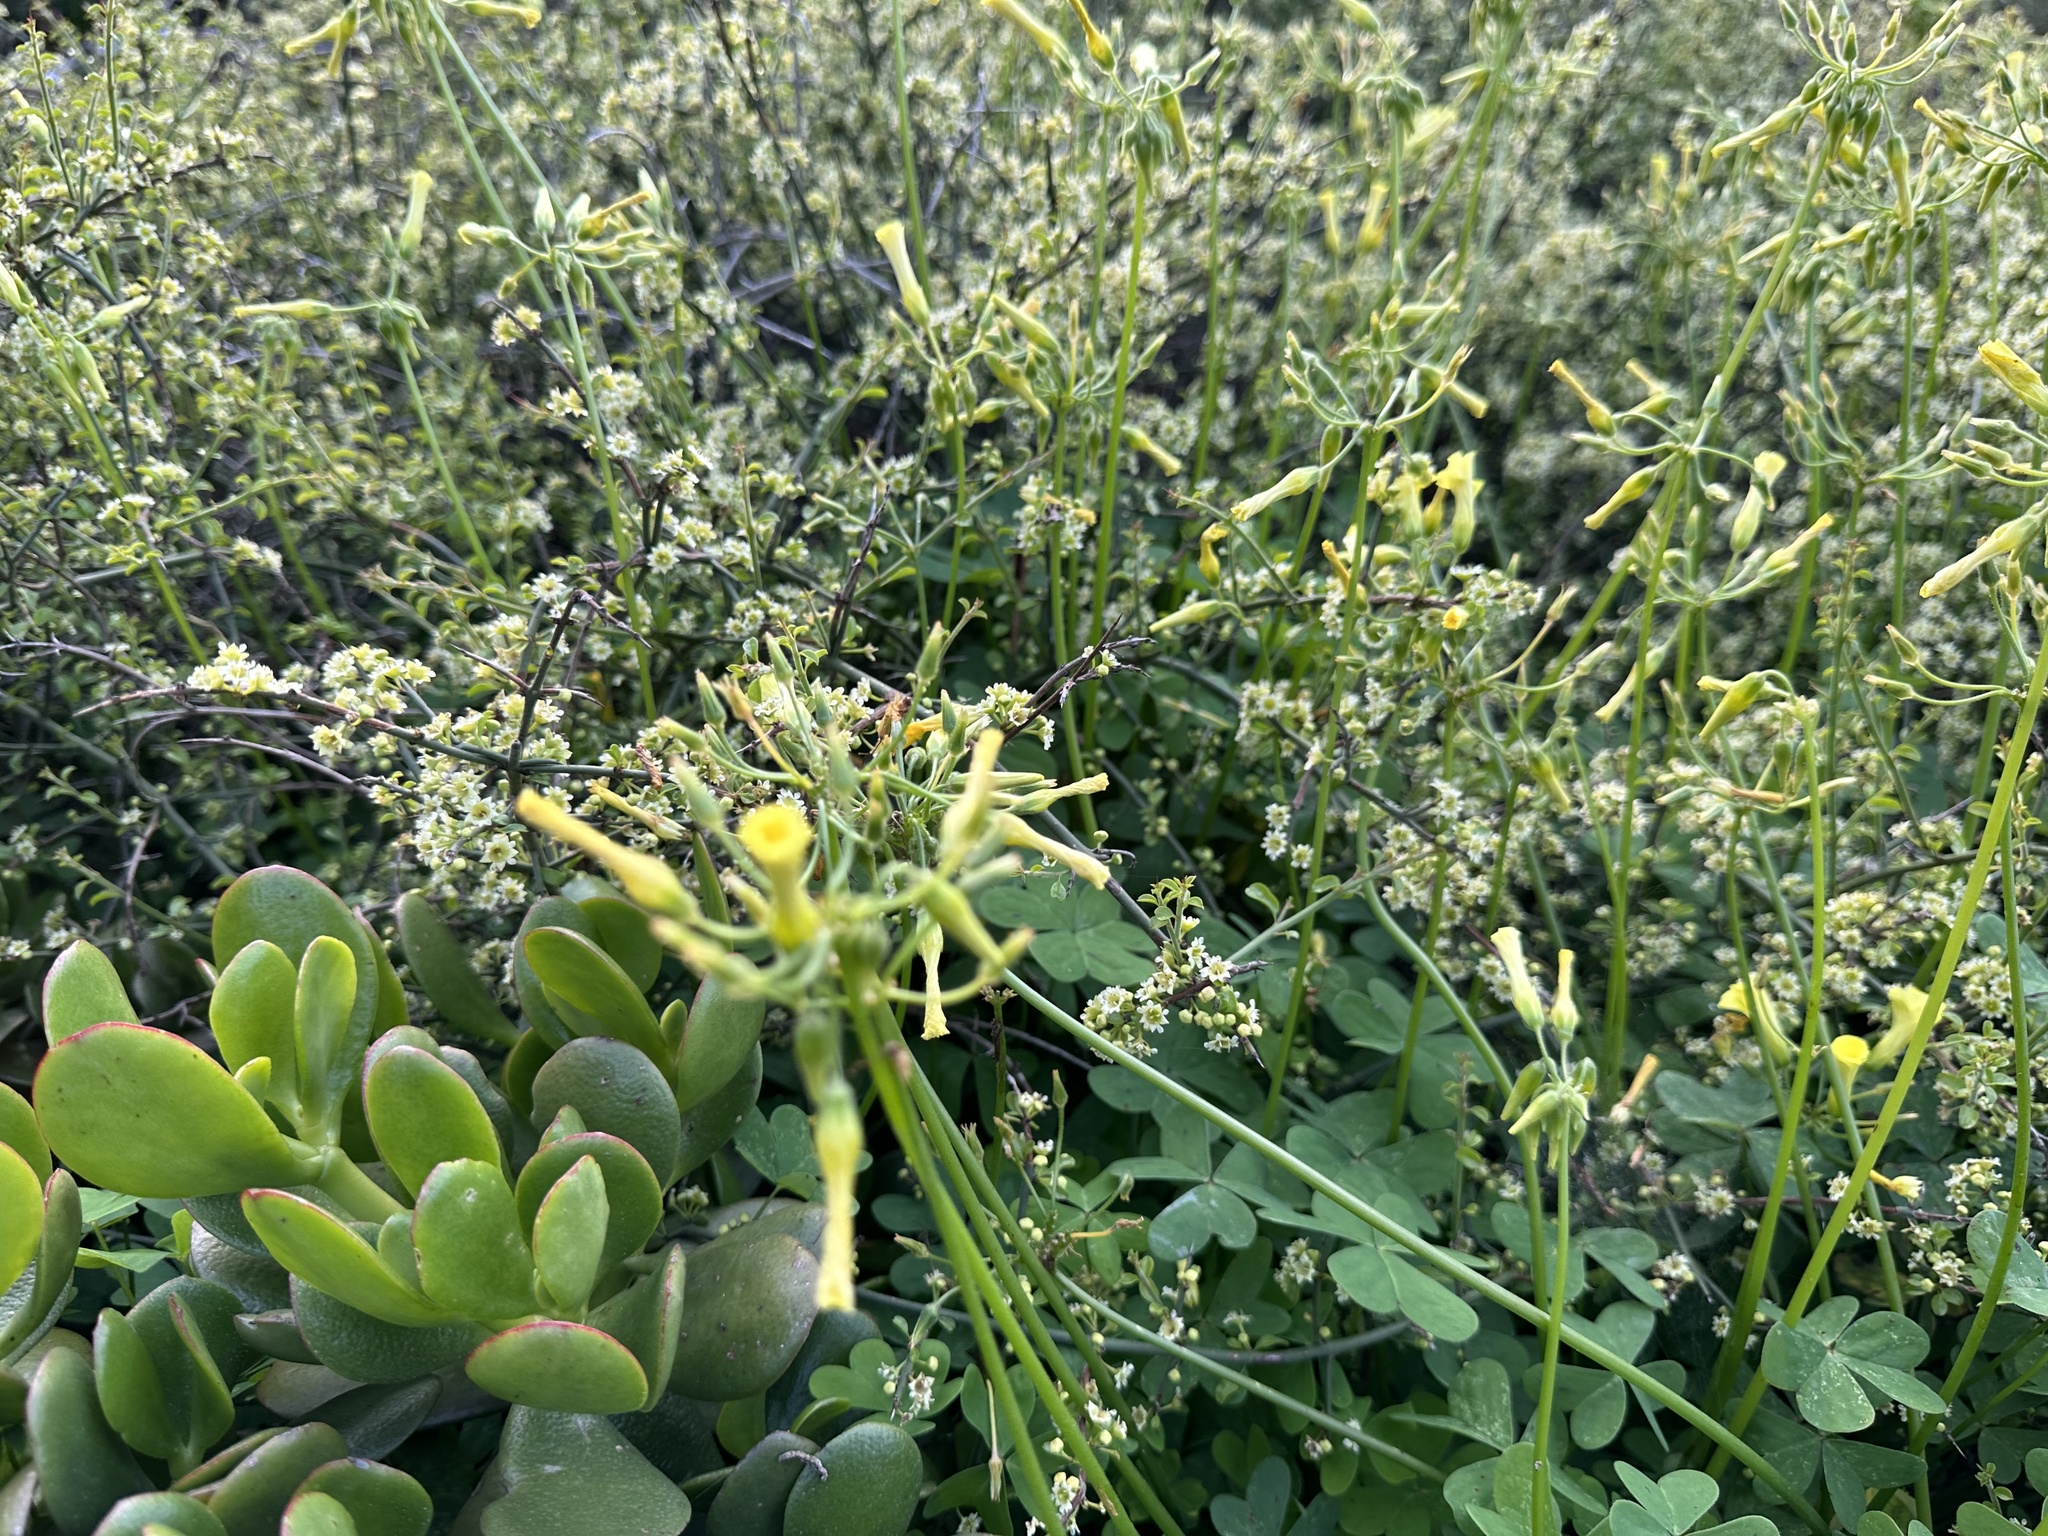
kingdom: Plantae
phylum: Tracheophyta
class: Magnoliopsida
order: Rosales
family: Rhamnaceae
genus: Adolphia
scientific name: Adolphia californica
